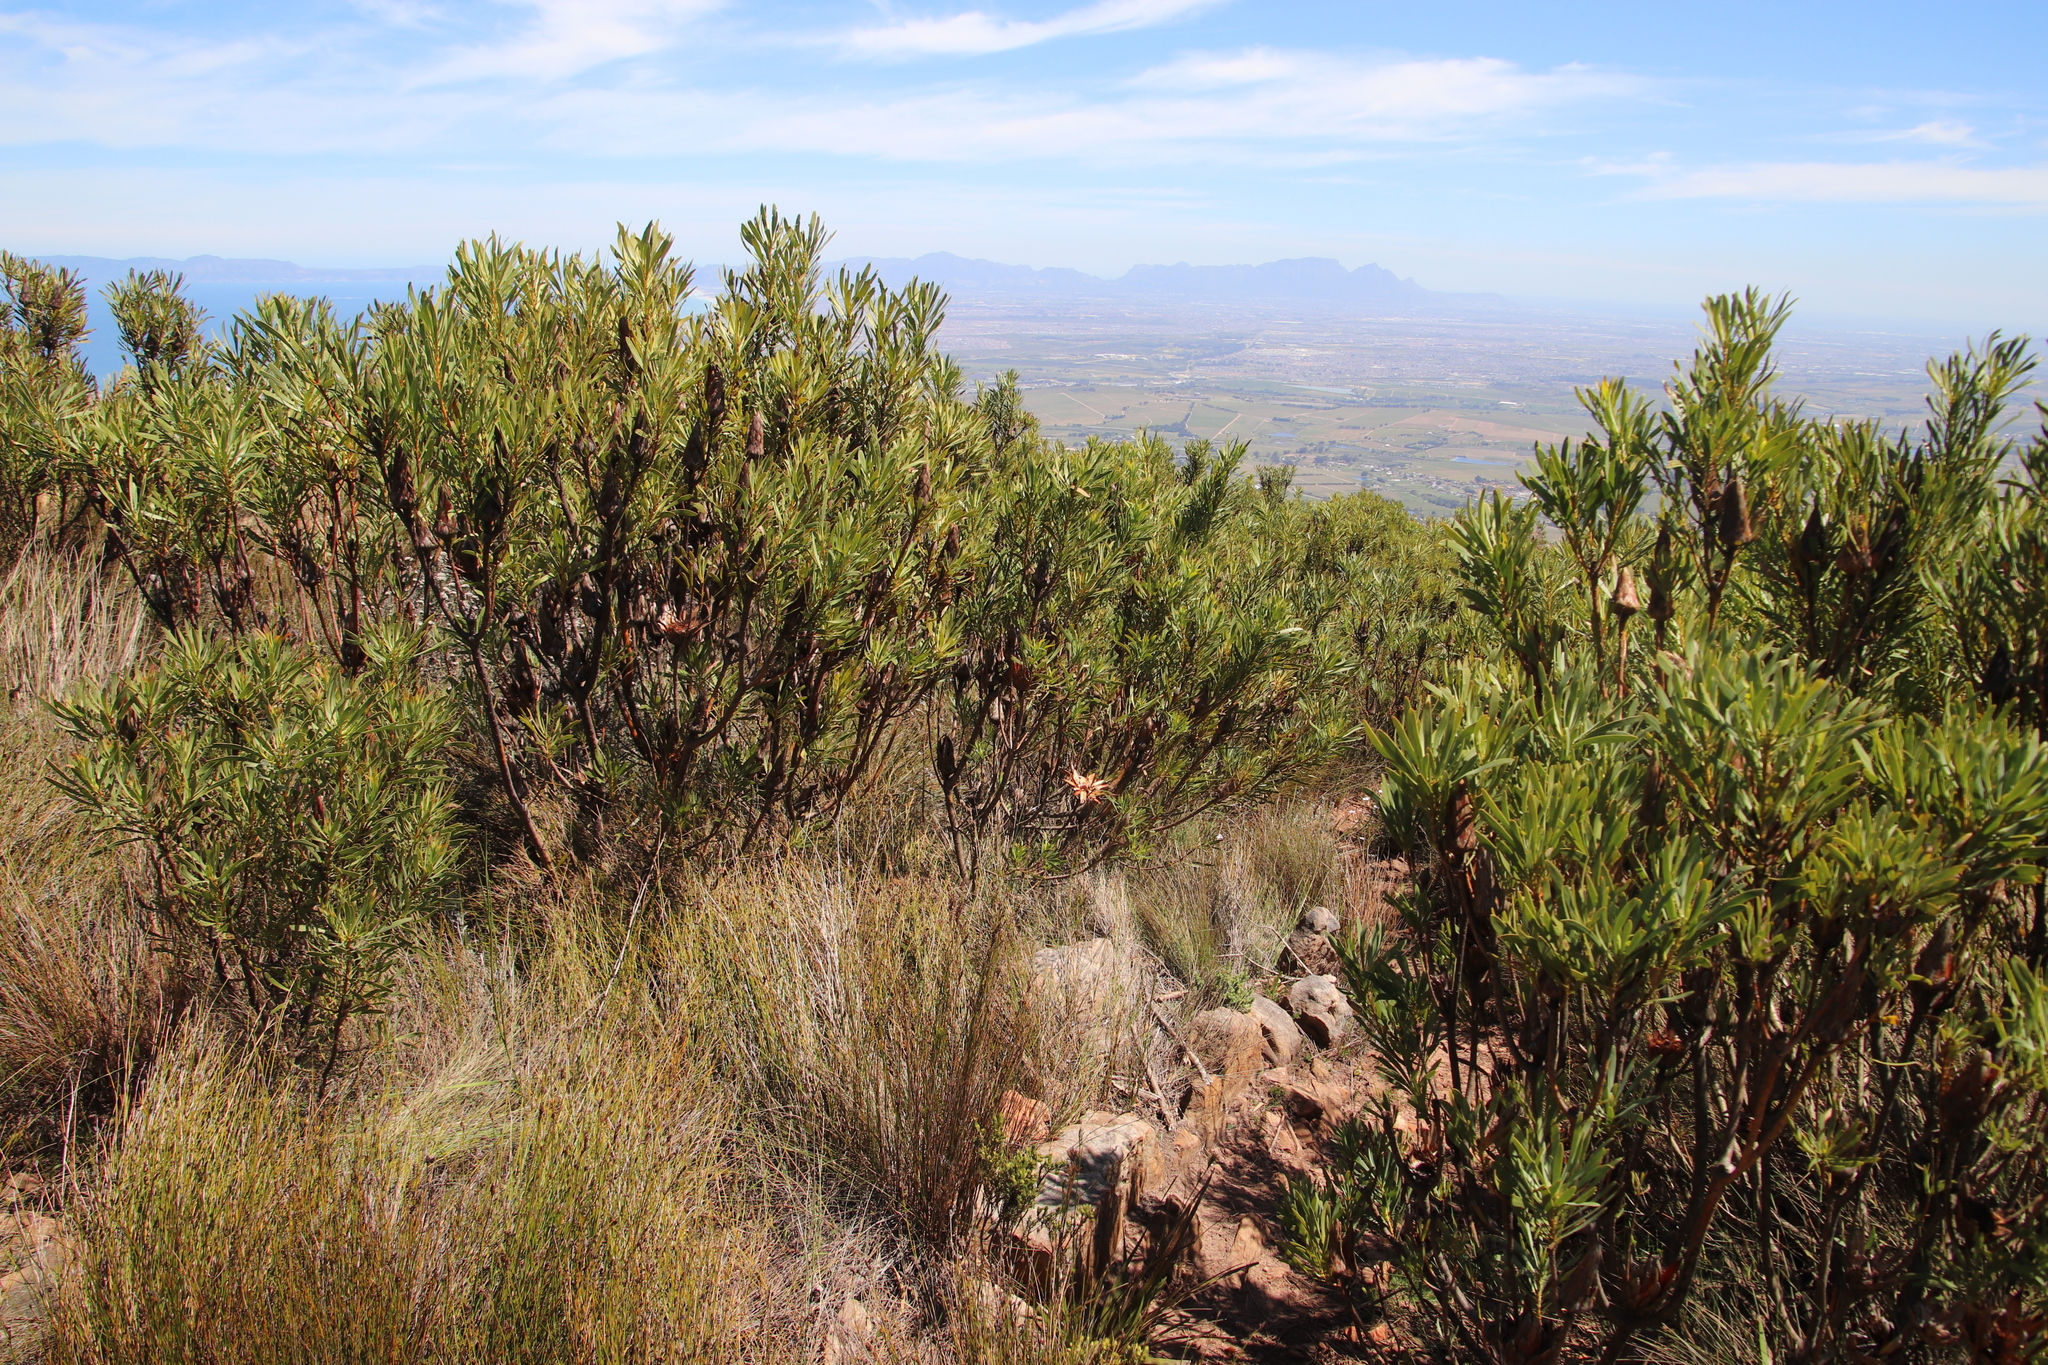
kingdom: Plantae
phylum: Tracheophyta
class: Magnoliopsida
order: Proteales
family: Proteaceae
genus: Protea
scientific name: Protea repens
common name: Sugarbush
